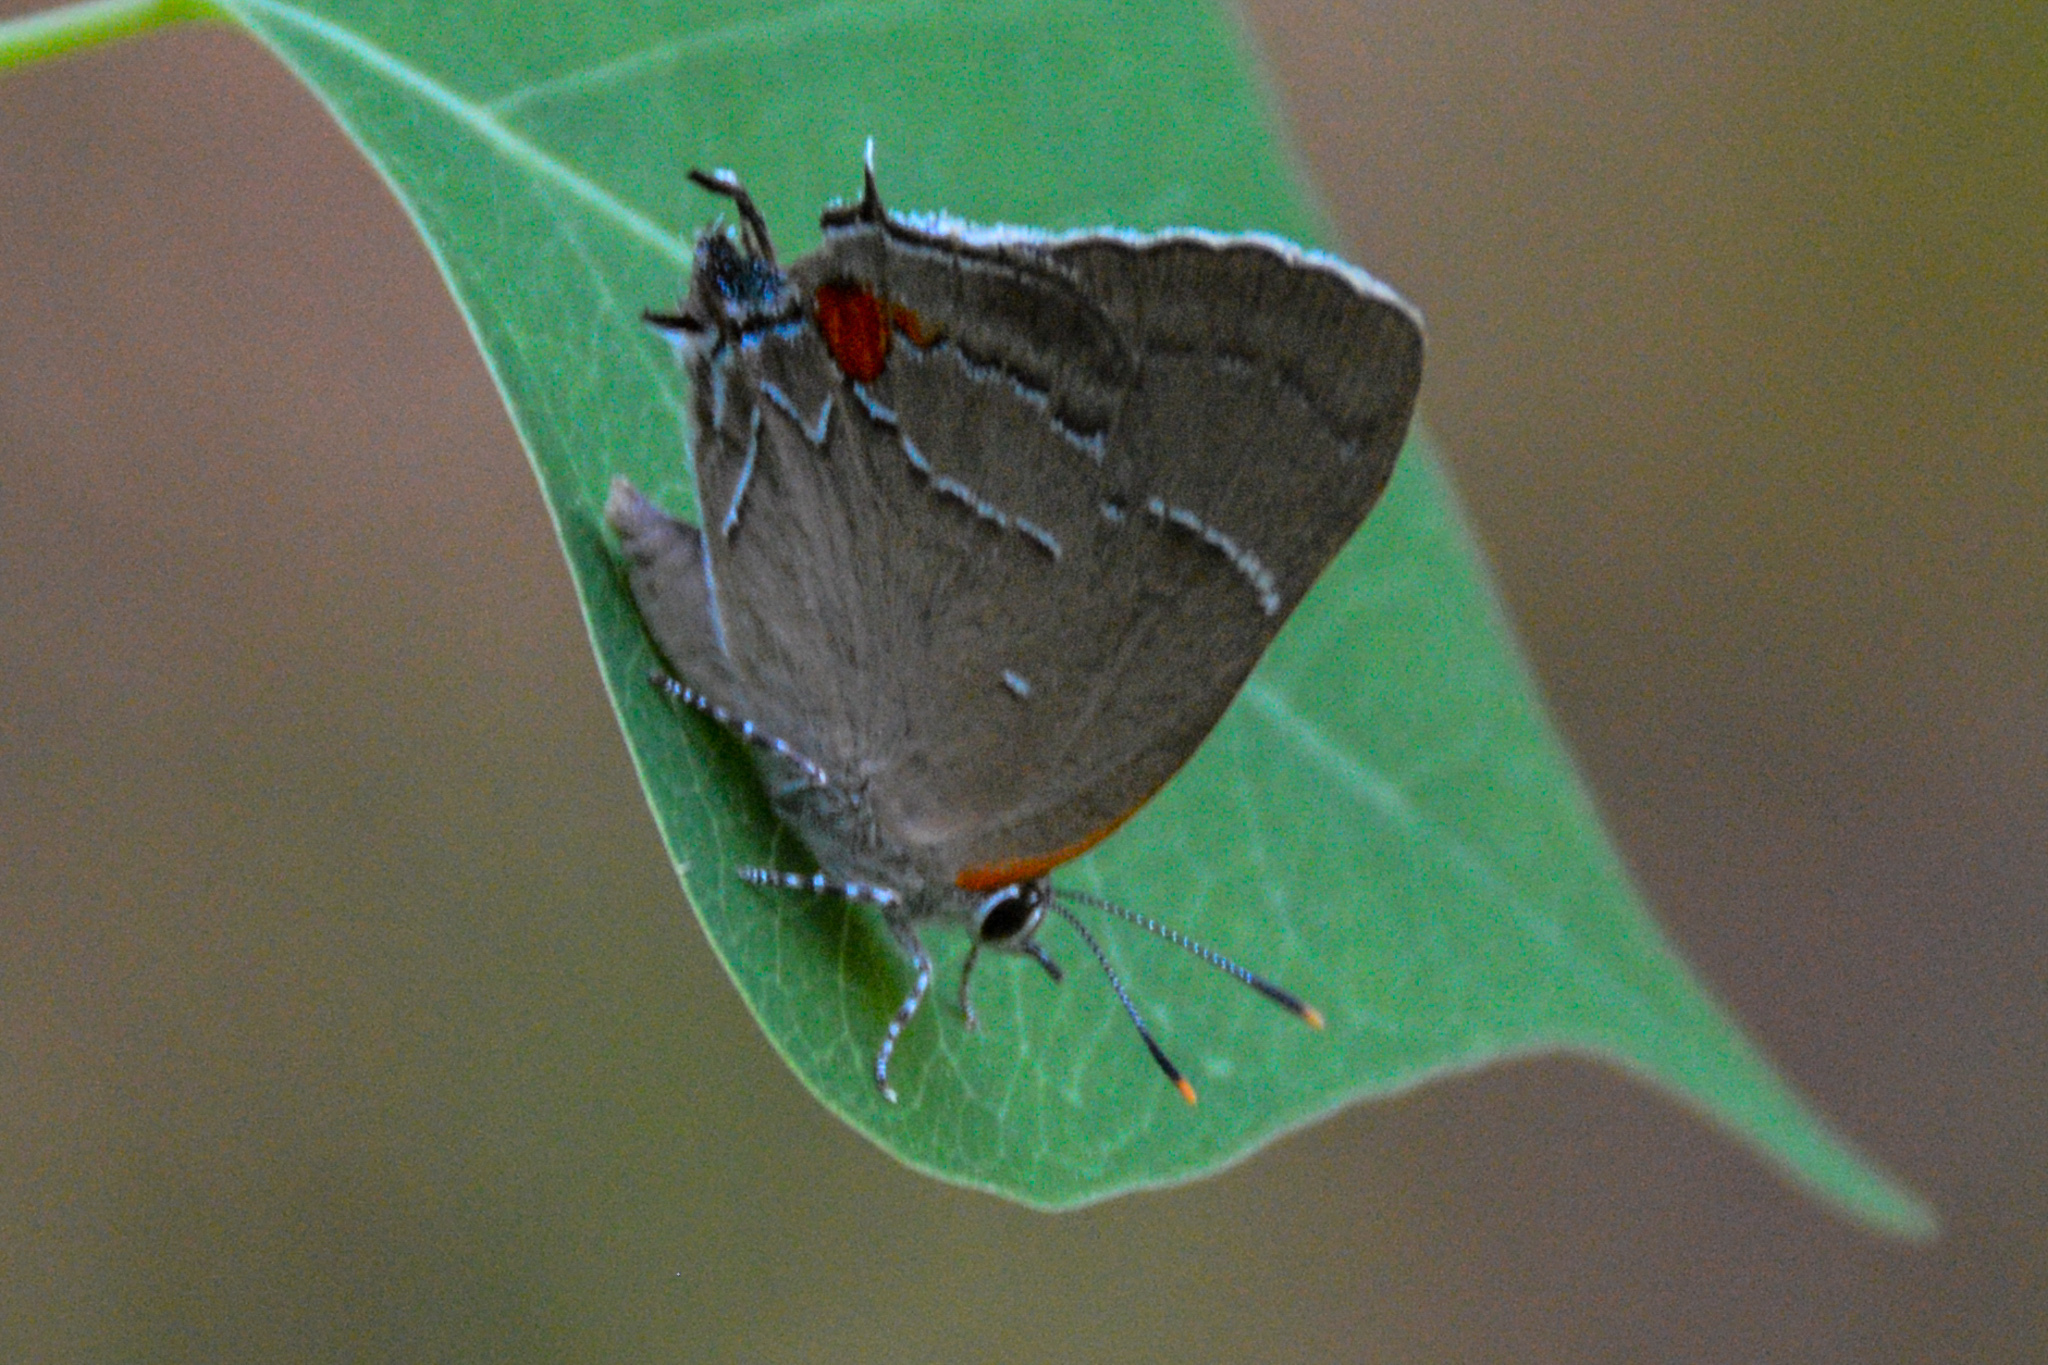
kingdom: Animalia
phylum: Arthropoda
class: Insecta
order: Lepidoptera
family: Lycaenidae
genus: Parrhasius
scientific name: Parrhasius m-album
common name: White m hairstreak
